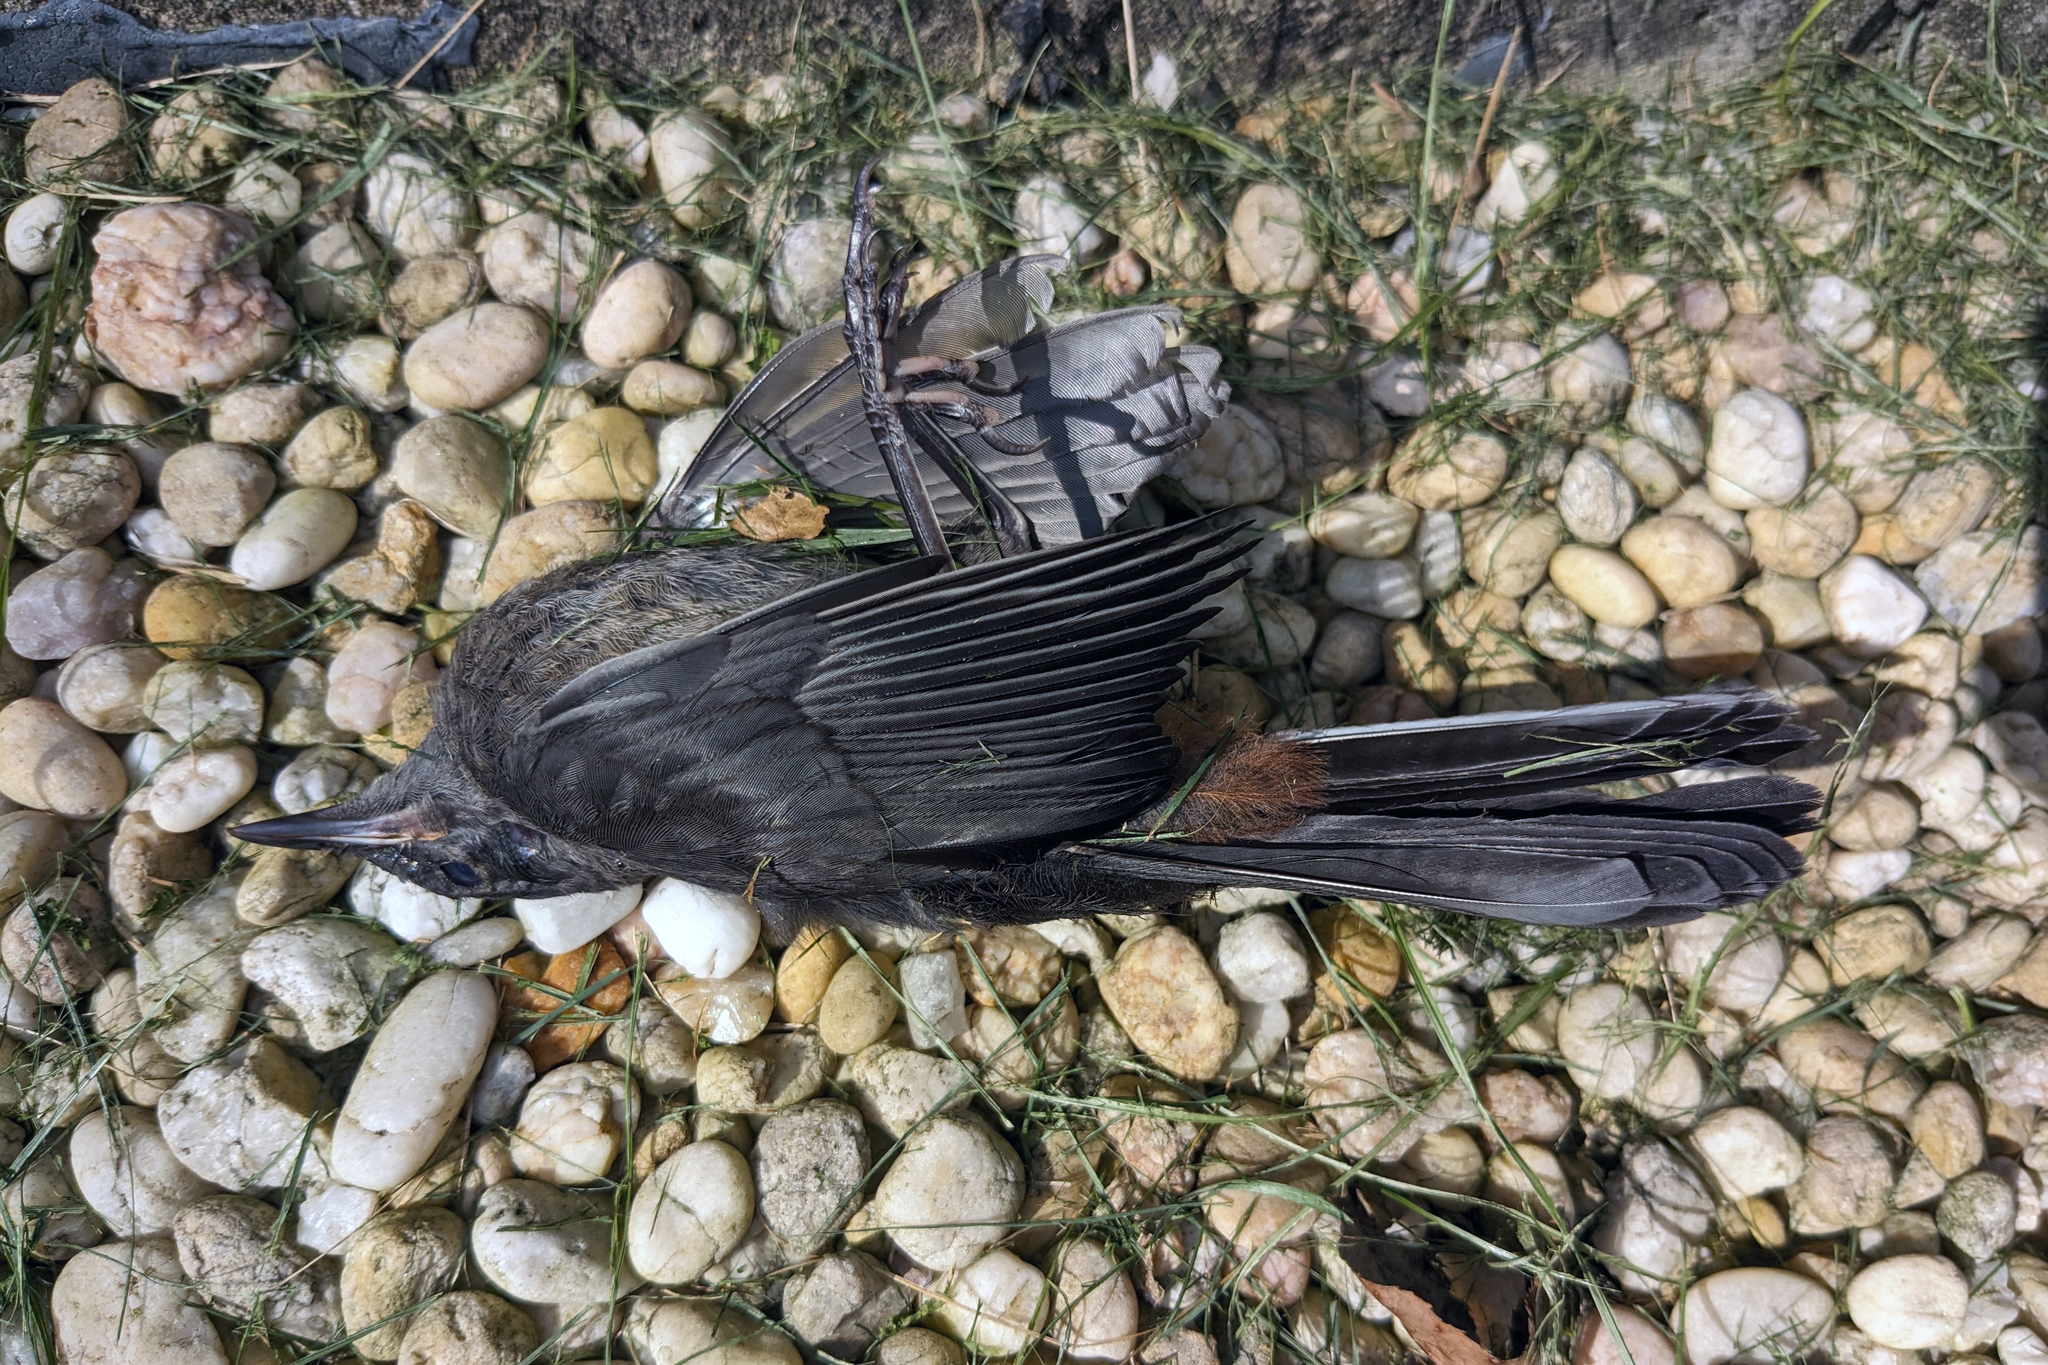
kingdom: Animalia
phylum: Chordata
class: Aves
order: Passeriformes
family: Mimidae
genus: Dumetella
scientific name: Dumetella carolinensis
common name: Gray catbird
